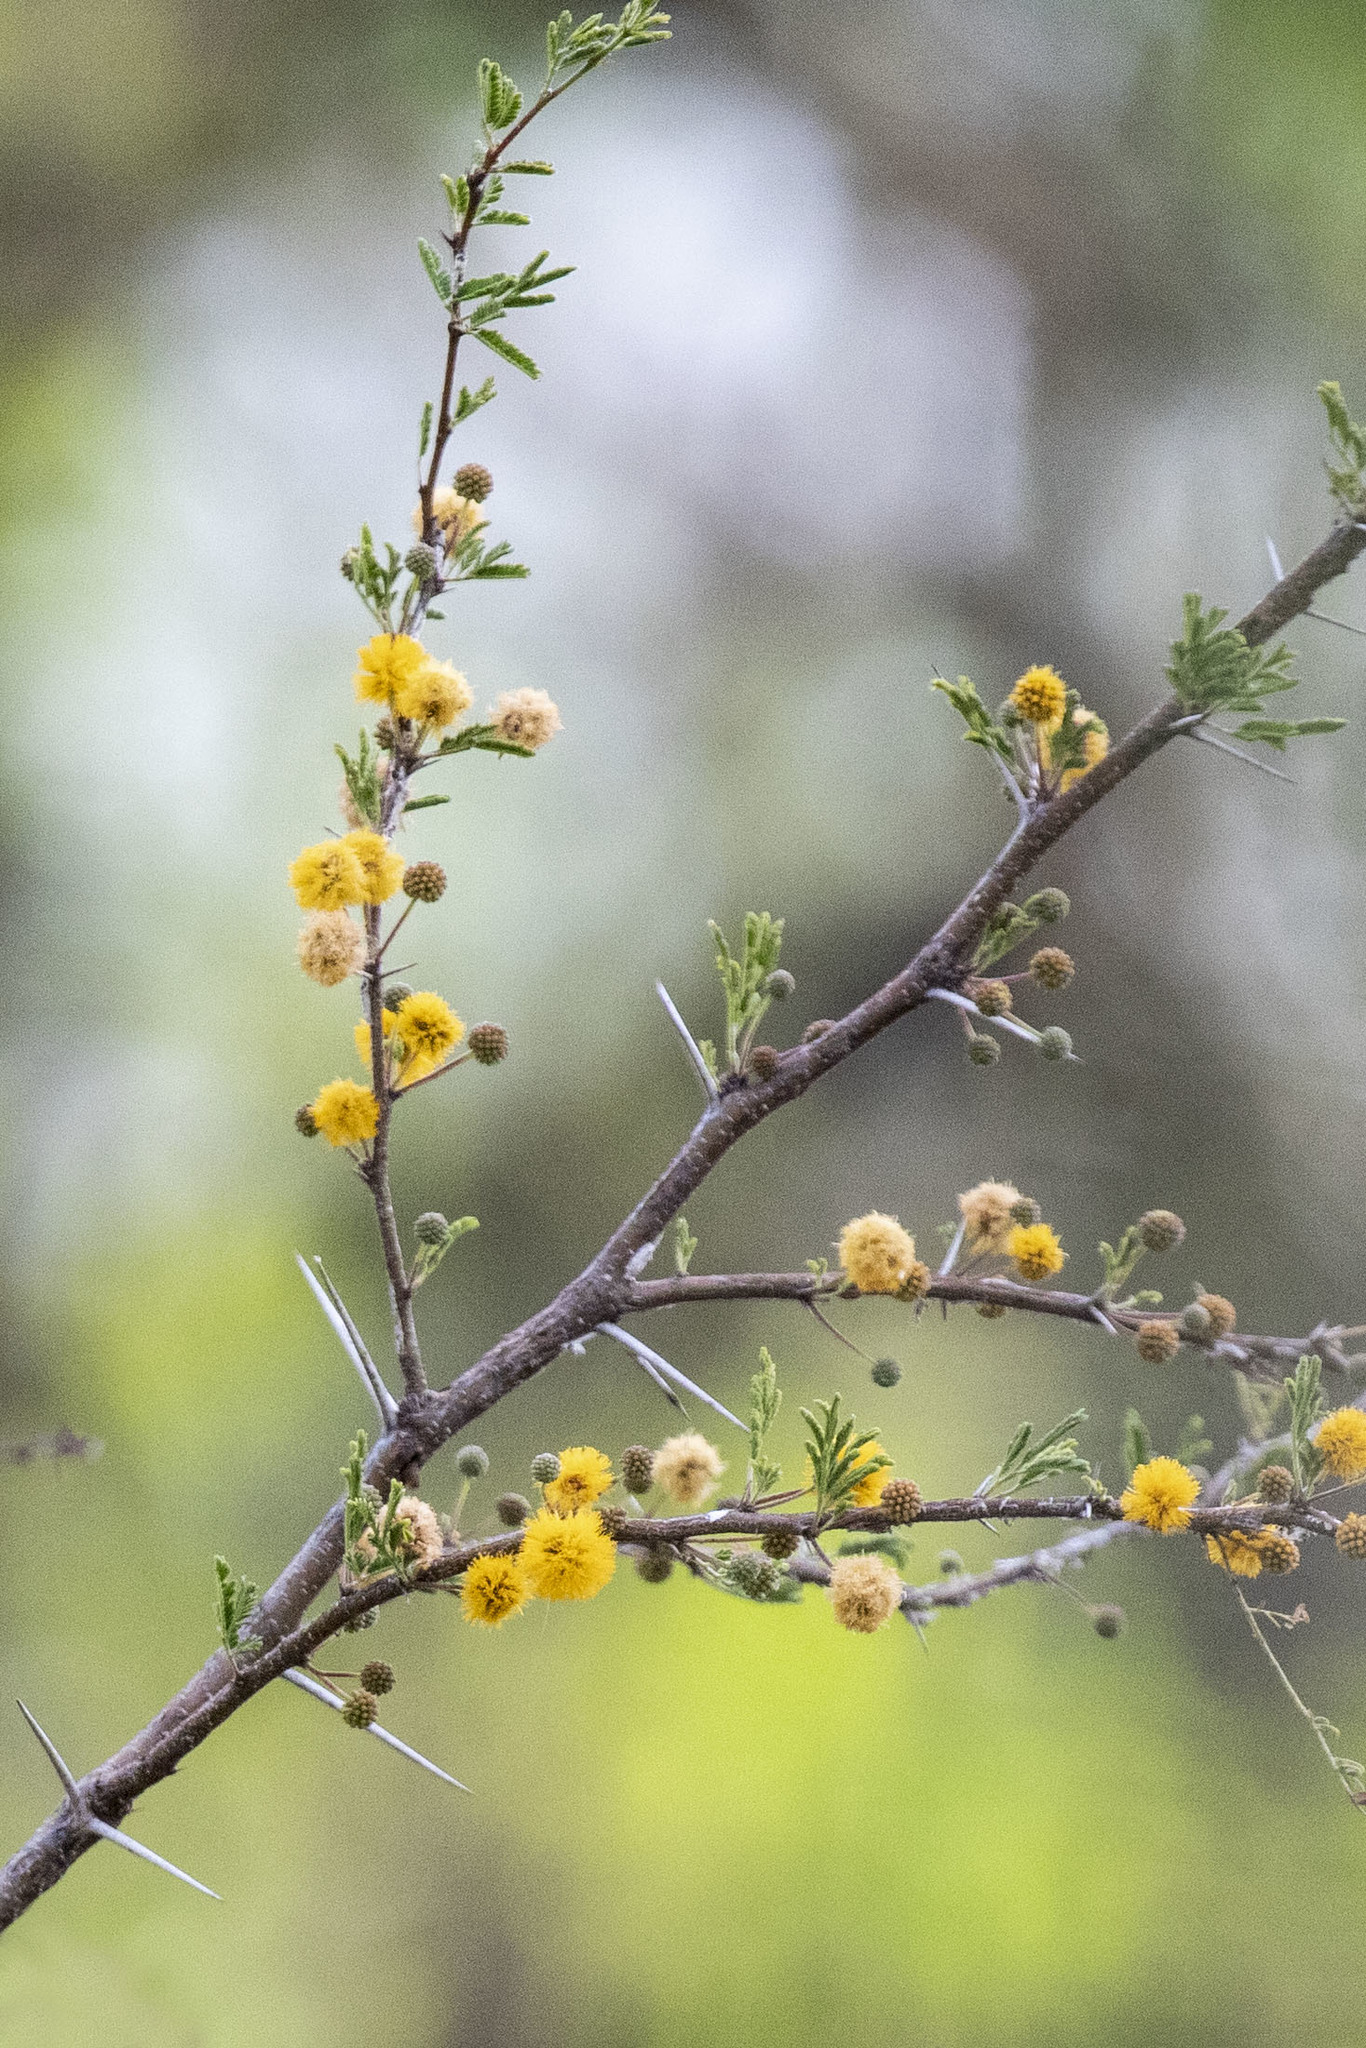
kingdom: Plantae
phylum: Tracheophyta
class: Magnoliopsida
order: Fabales
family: Fabaceae
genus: Vachellia
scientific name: Vachellia farnesiana
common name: Sweet acacia
